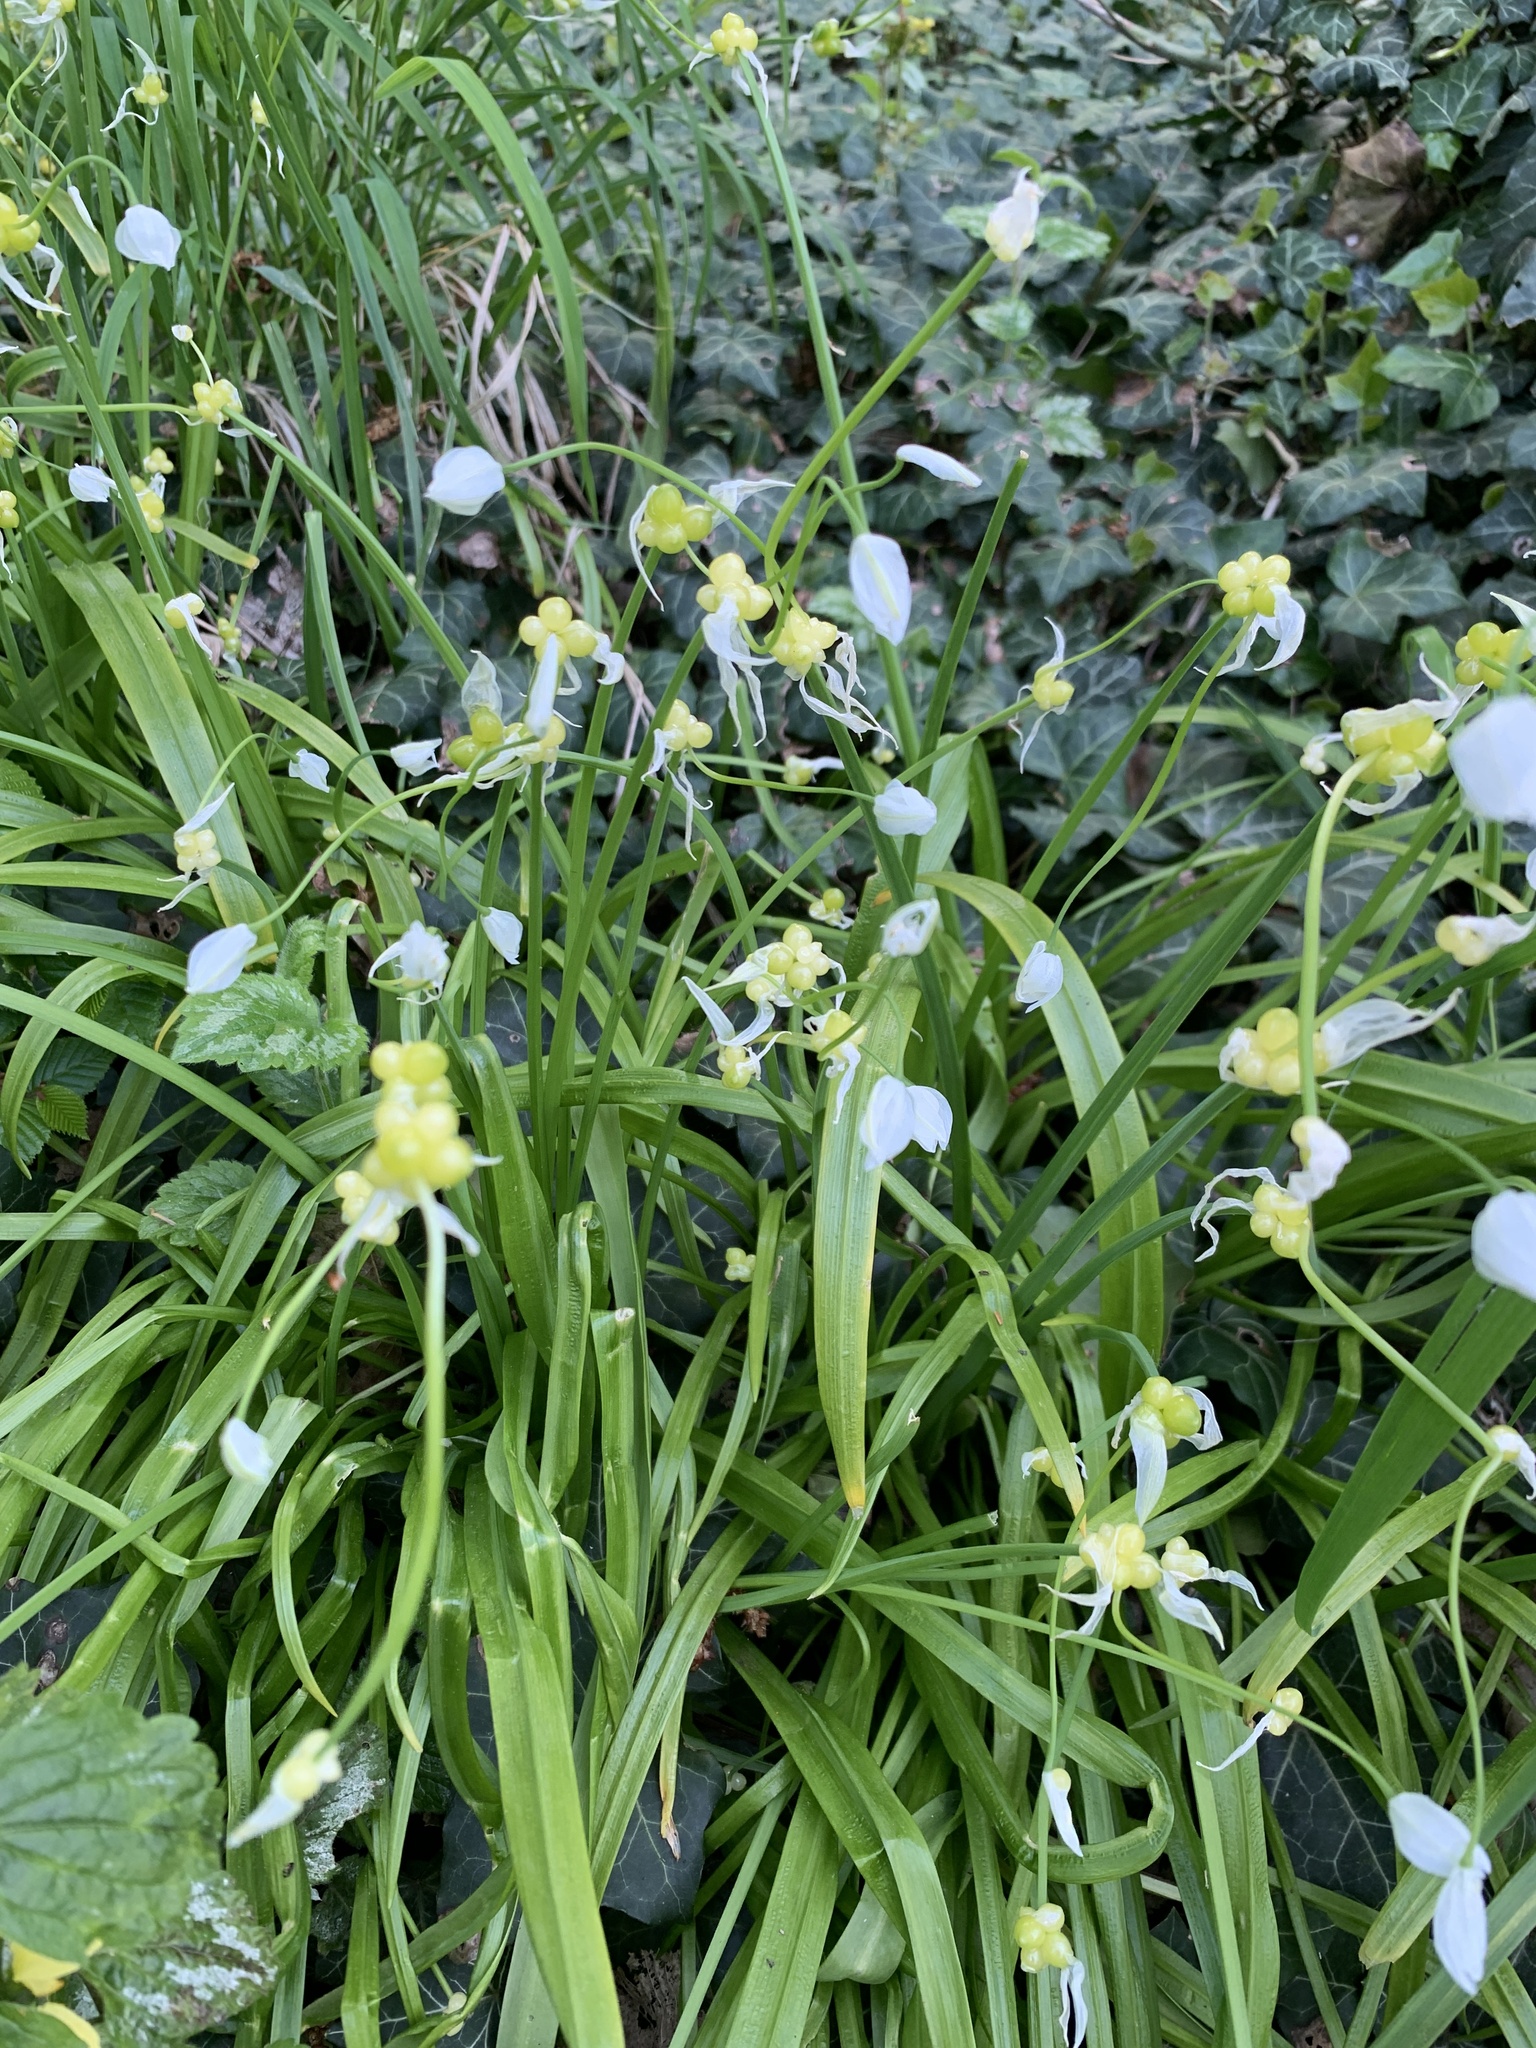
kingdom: Plantae
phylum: Tracheophyta
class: Liliopsida
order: Asparagales
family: Amaryllidaceae
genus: Allium
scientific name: Allium paradoxum
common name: Few-flowered garlic
